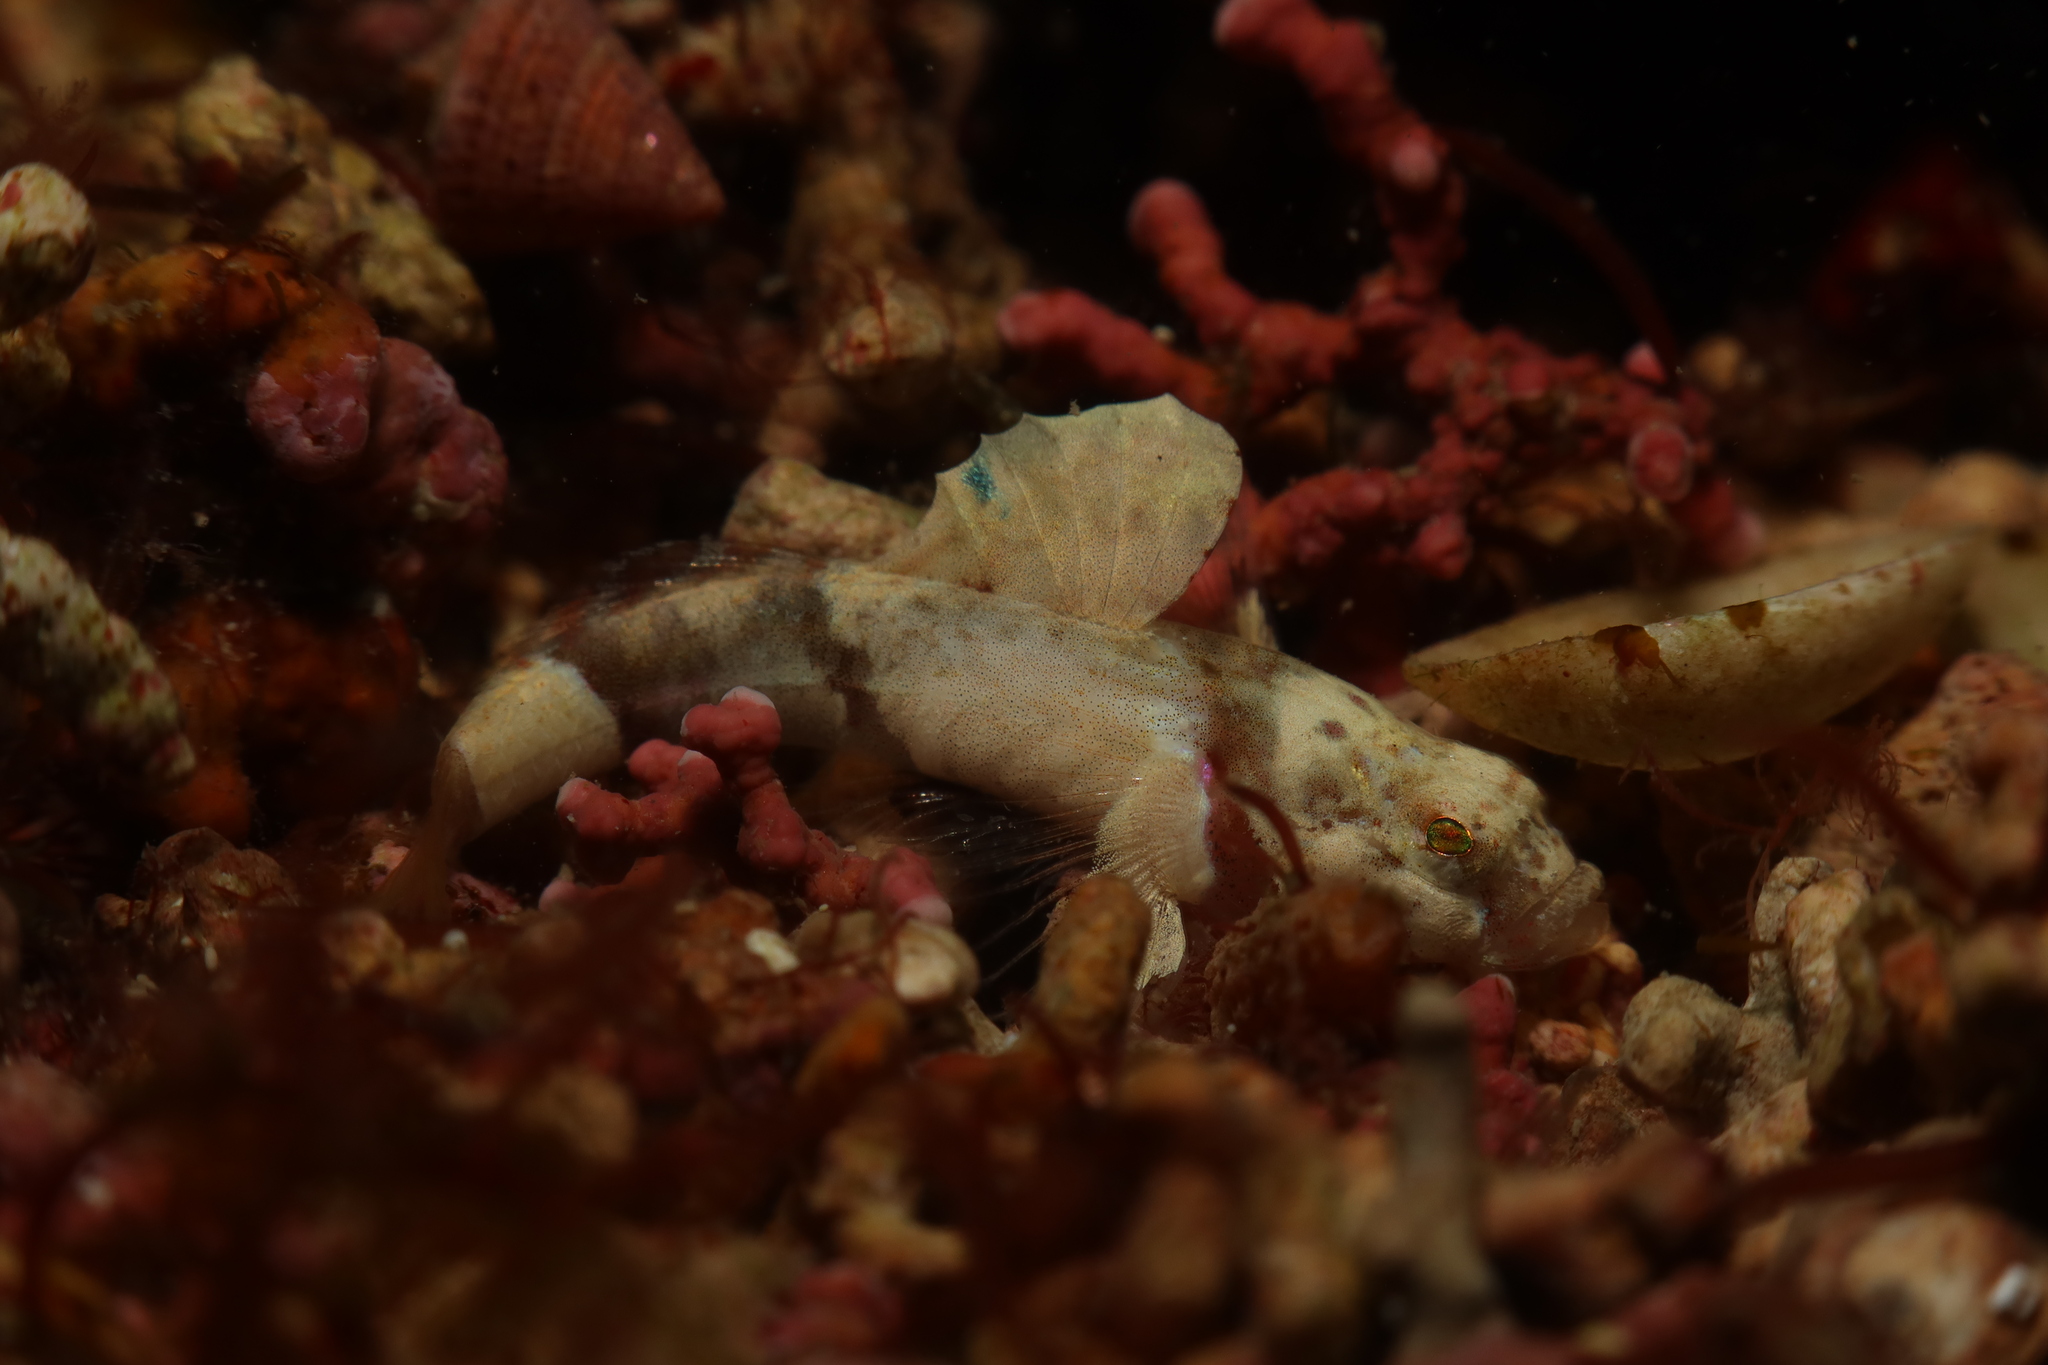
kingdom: Animalia
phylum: Chordata
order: Perciformes
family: Gobiidae
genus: Lebetus
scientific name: Lebetus guilleti
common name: Guillet's goby
